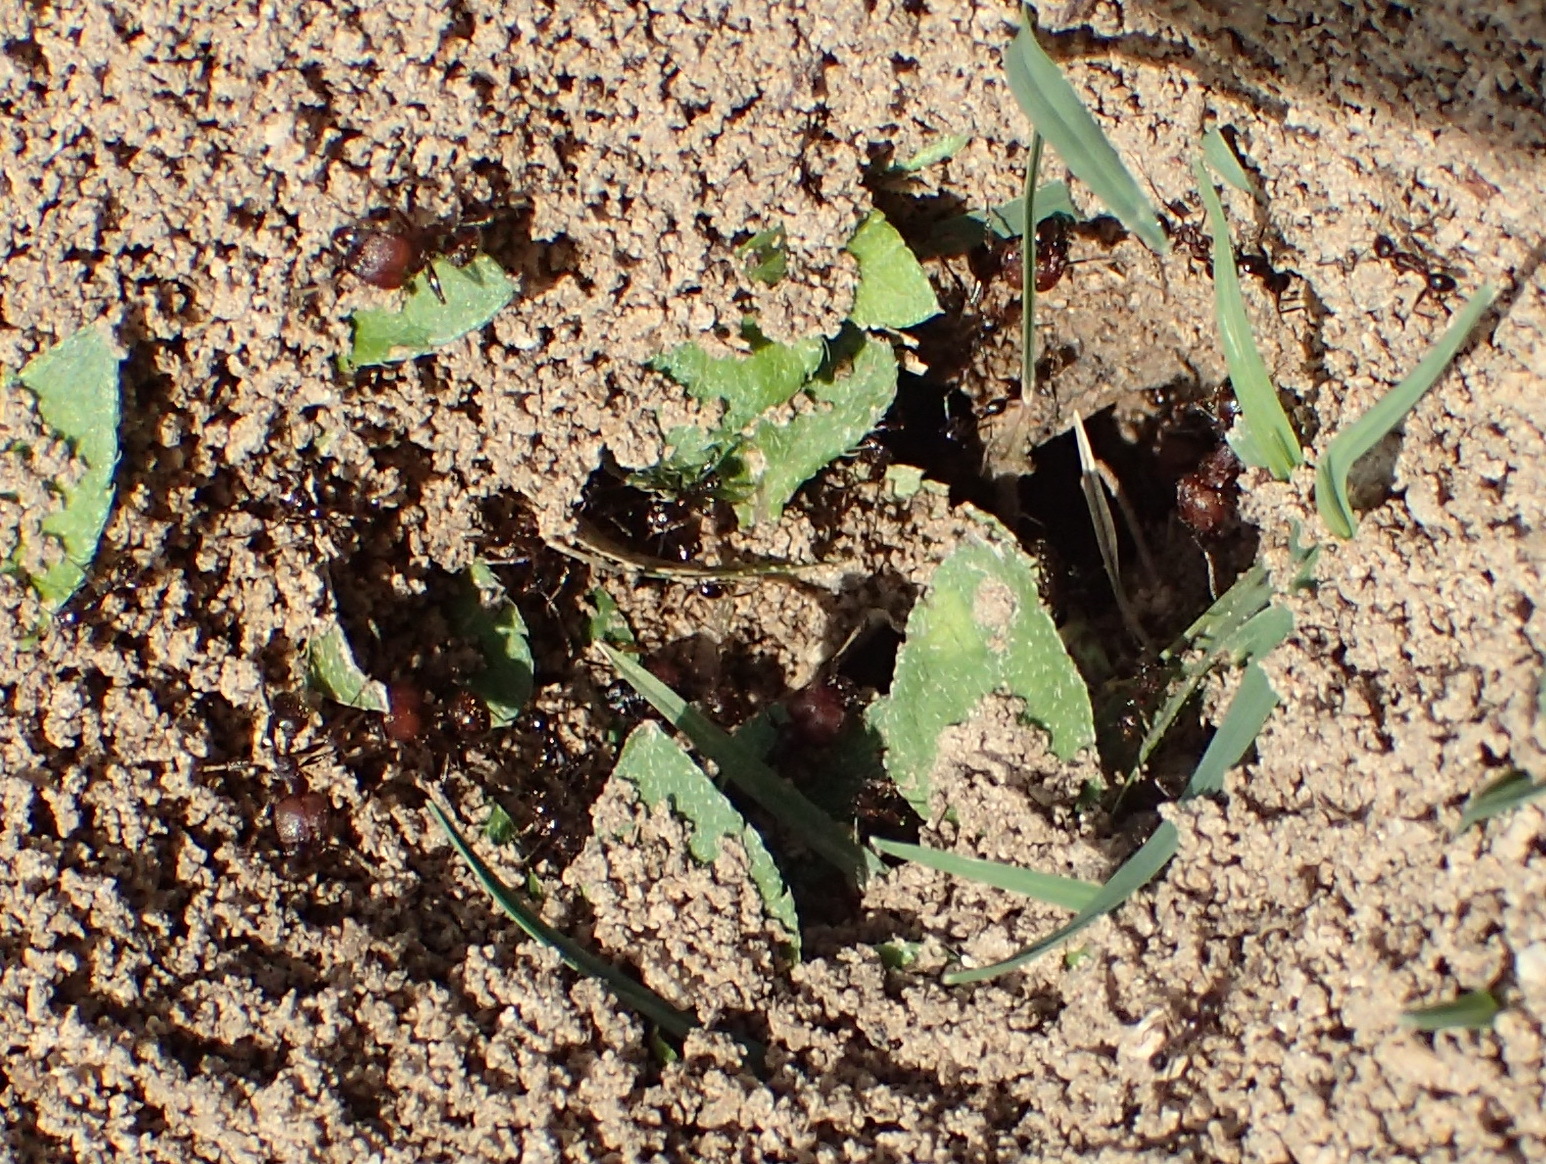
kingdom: Animalia
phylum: Arthropoda
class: Insecta
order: Hymenoptera
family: Formicidae
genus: Pheidole
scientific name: Pheidole obscurithorax
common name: Obscure big-headed ant
